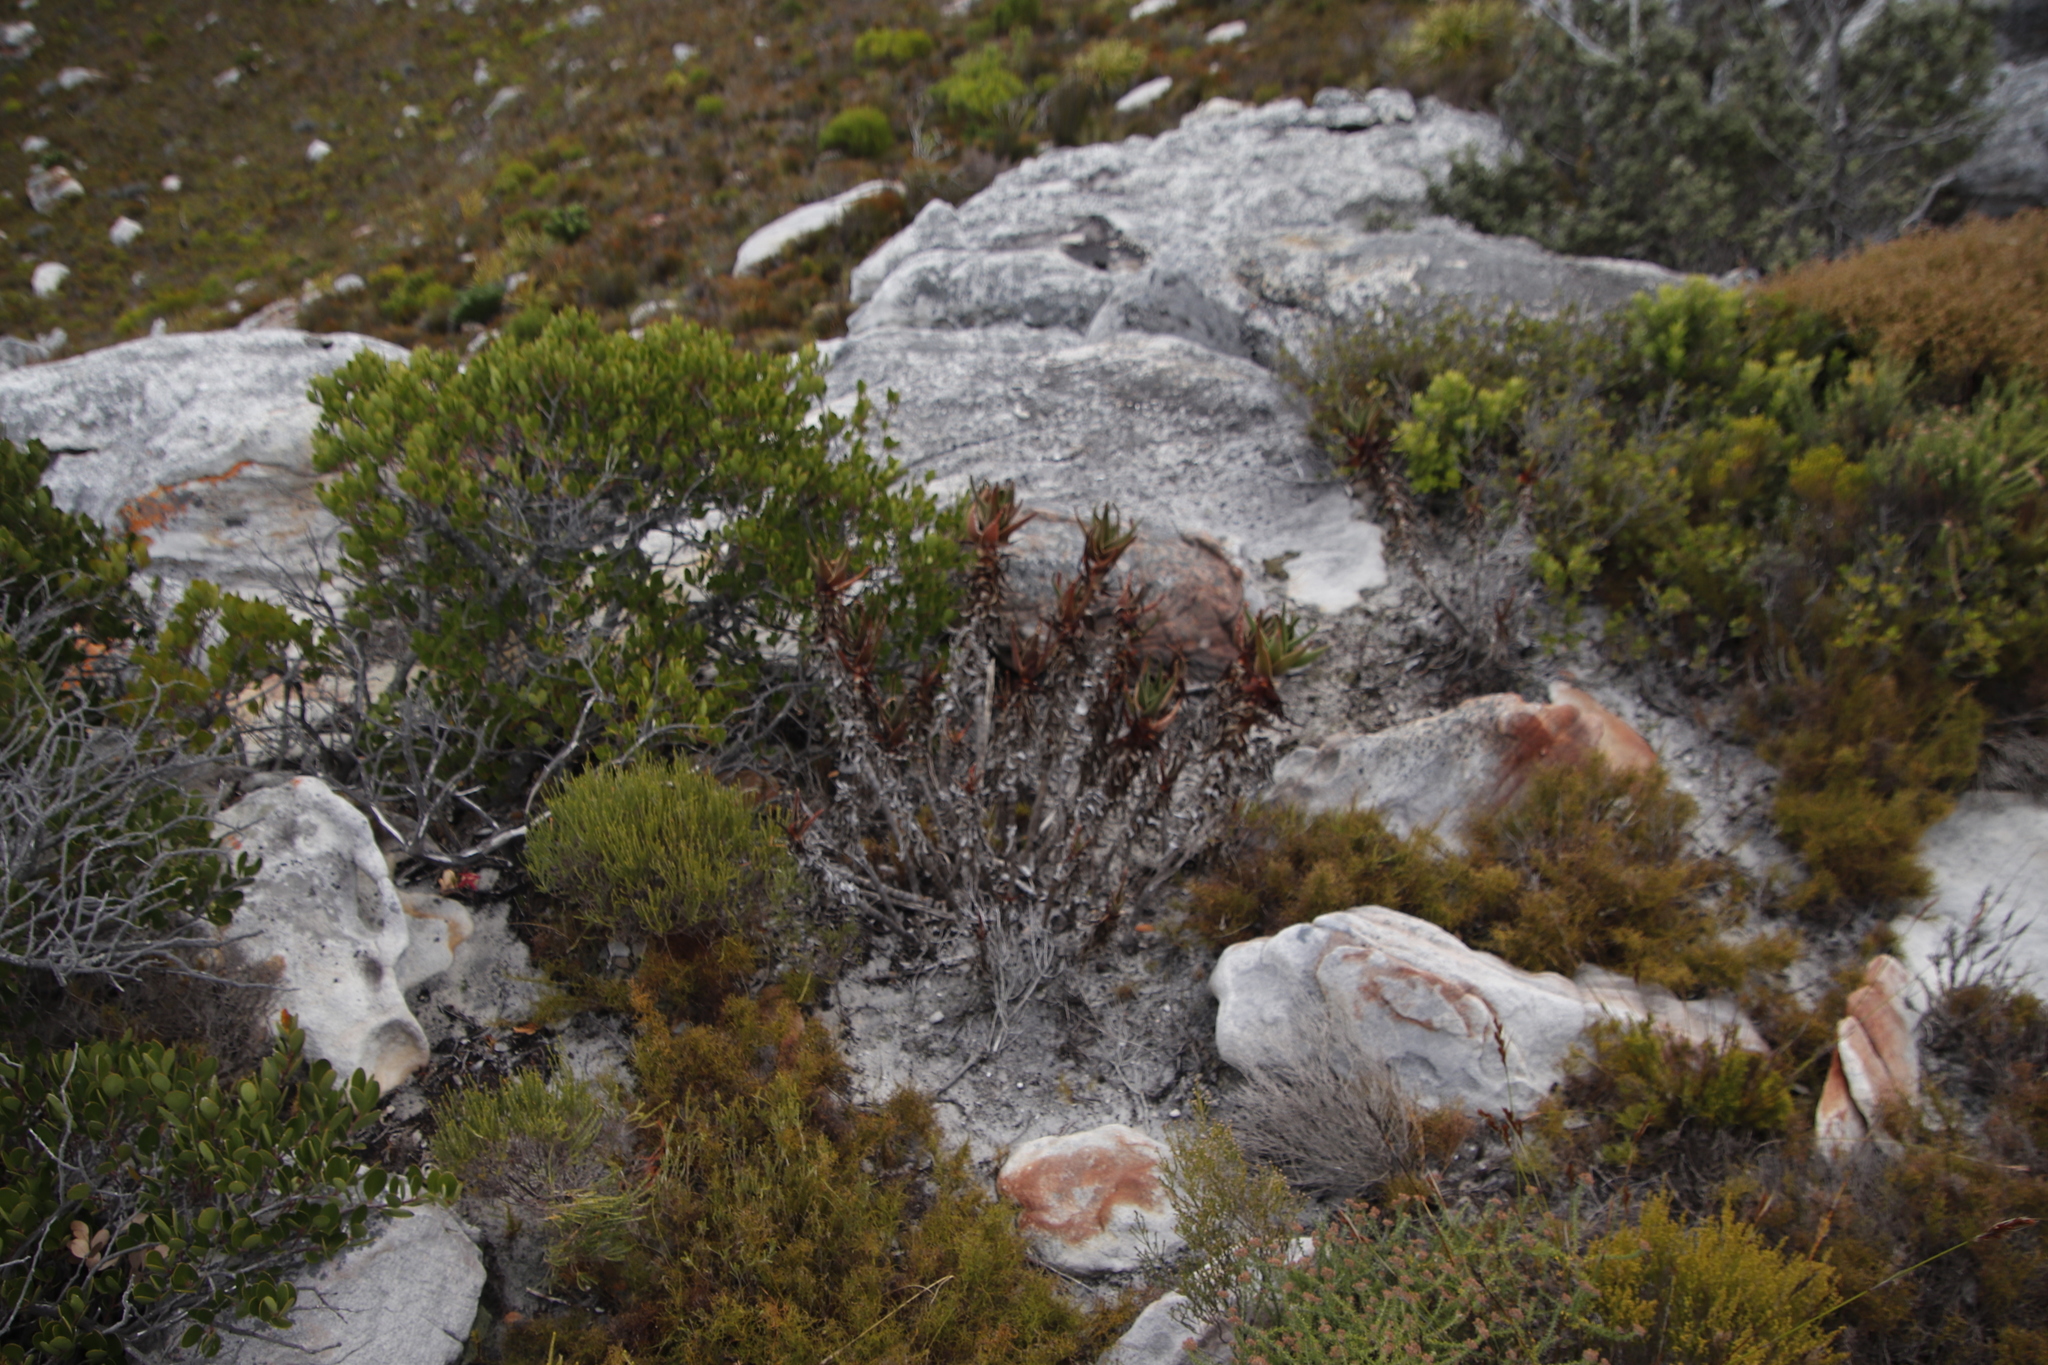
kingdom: Plantae
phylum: Tracheophyta
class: Liliopsida
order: Asparagales
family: Asphodelaceae
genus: Aloiampelos
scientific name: Aloiampelos commixta
